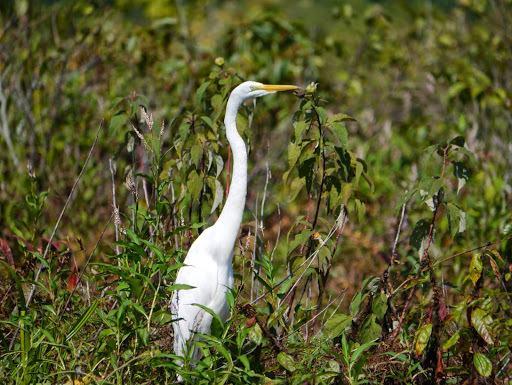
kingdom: Animalia
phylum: Chordata
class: Aves
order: Pelecaniformes
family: Ardeidae
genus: Ardea
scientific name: Ardea alba
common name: Great egret
